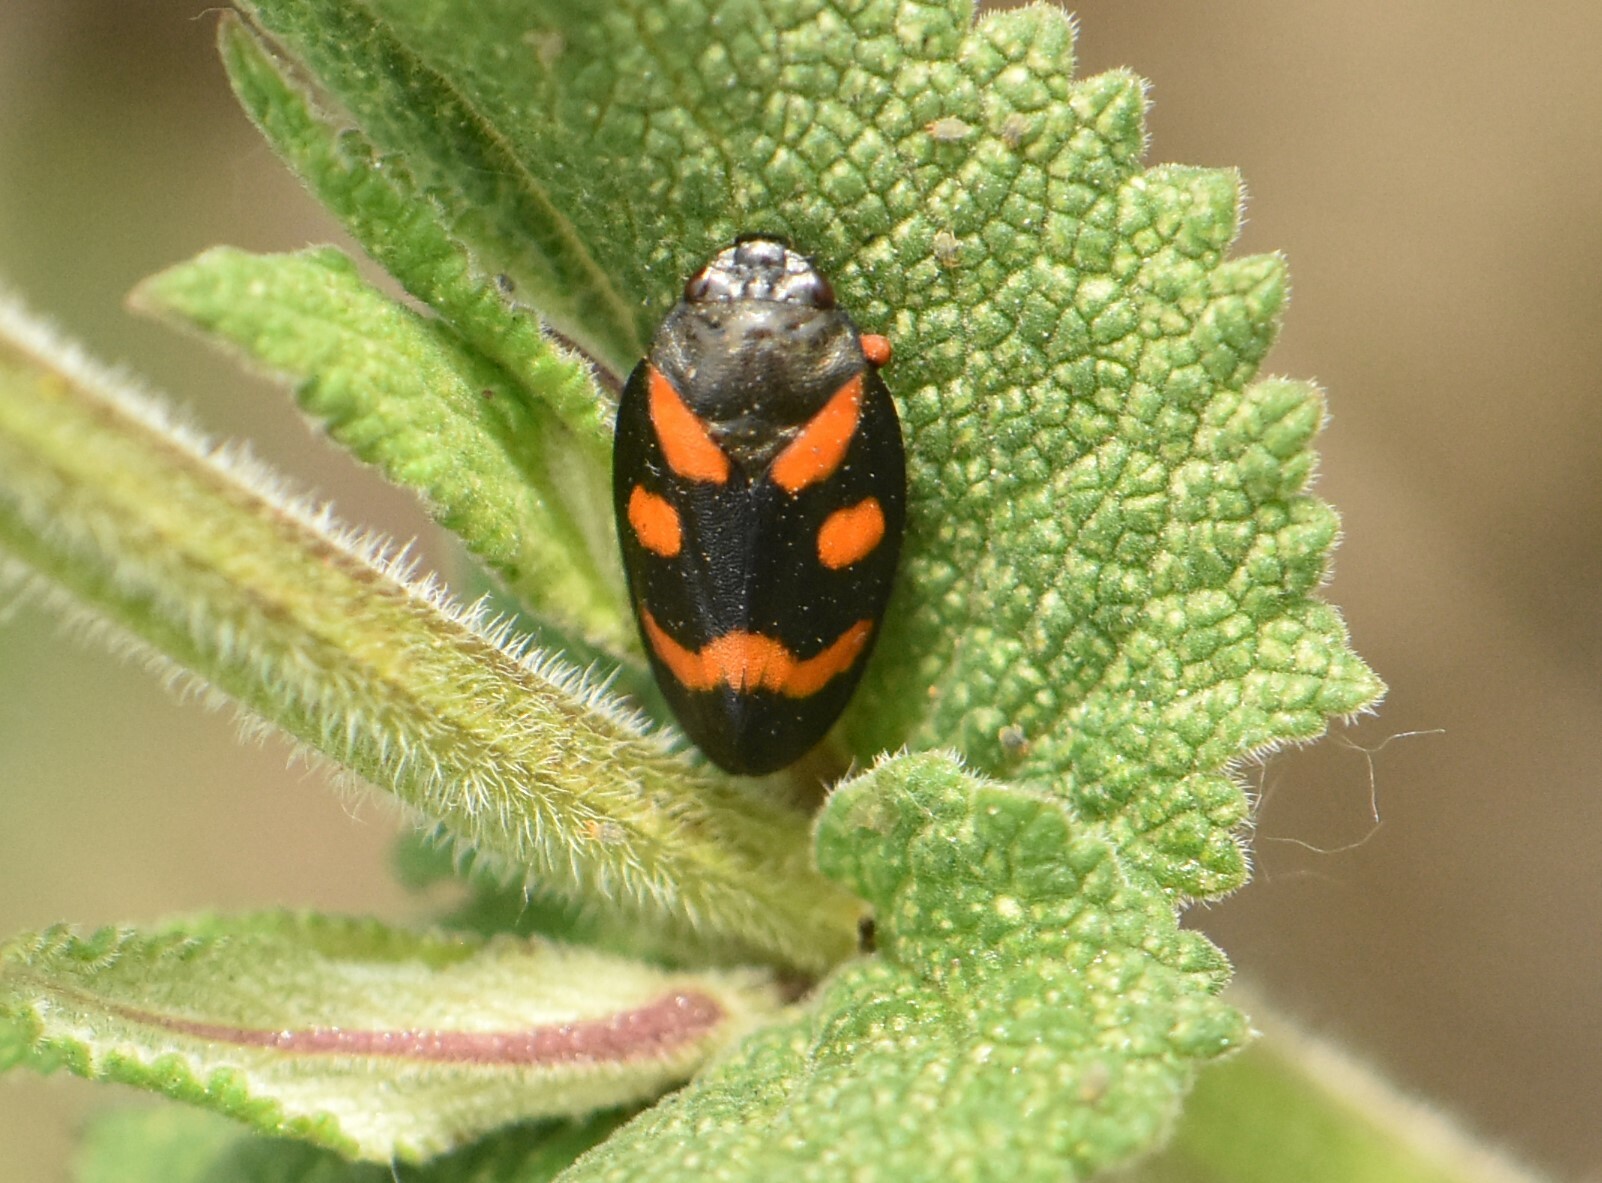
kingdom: Animalia
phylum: Arthropoda
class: Insecta
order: Hemiptera
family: Cercopidae
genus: Cercopis
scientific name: Cercopis intermedia
